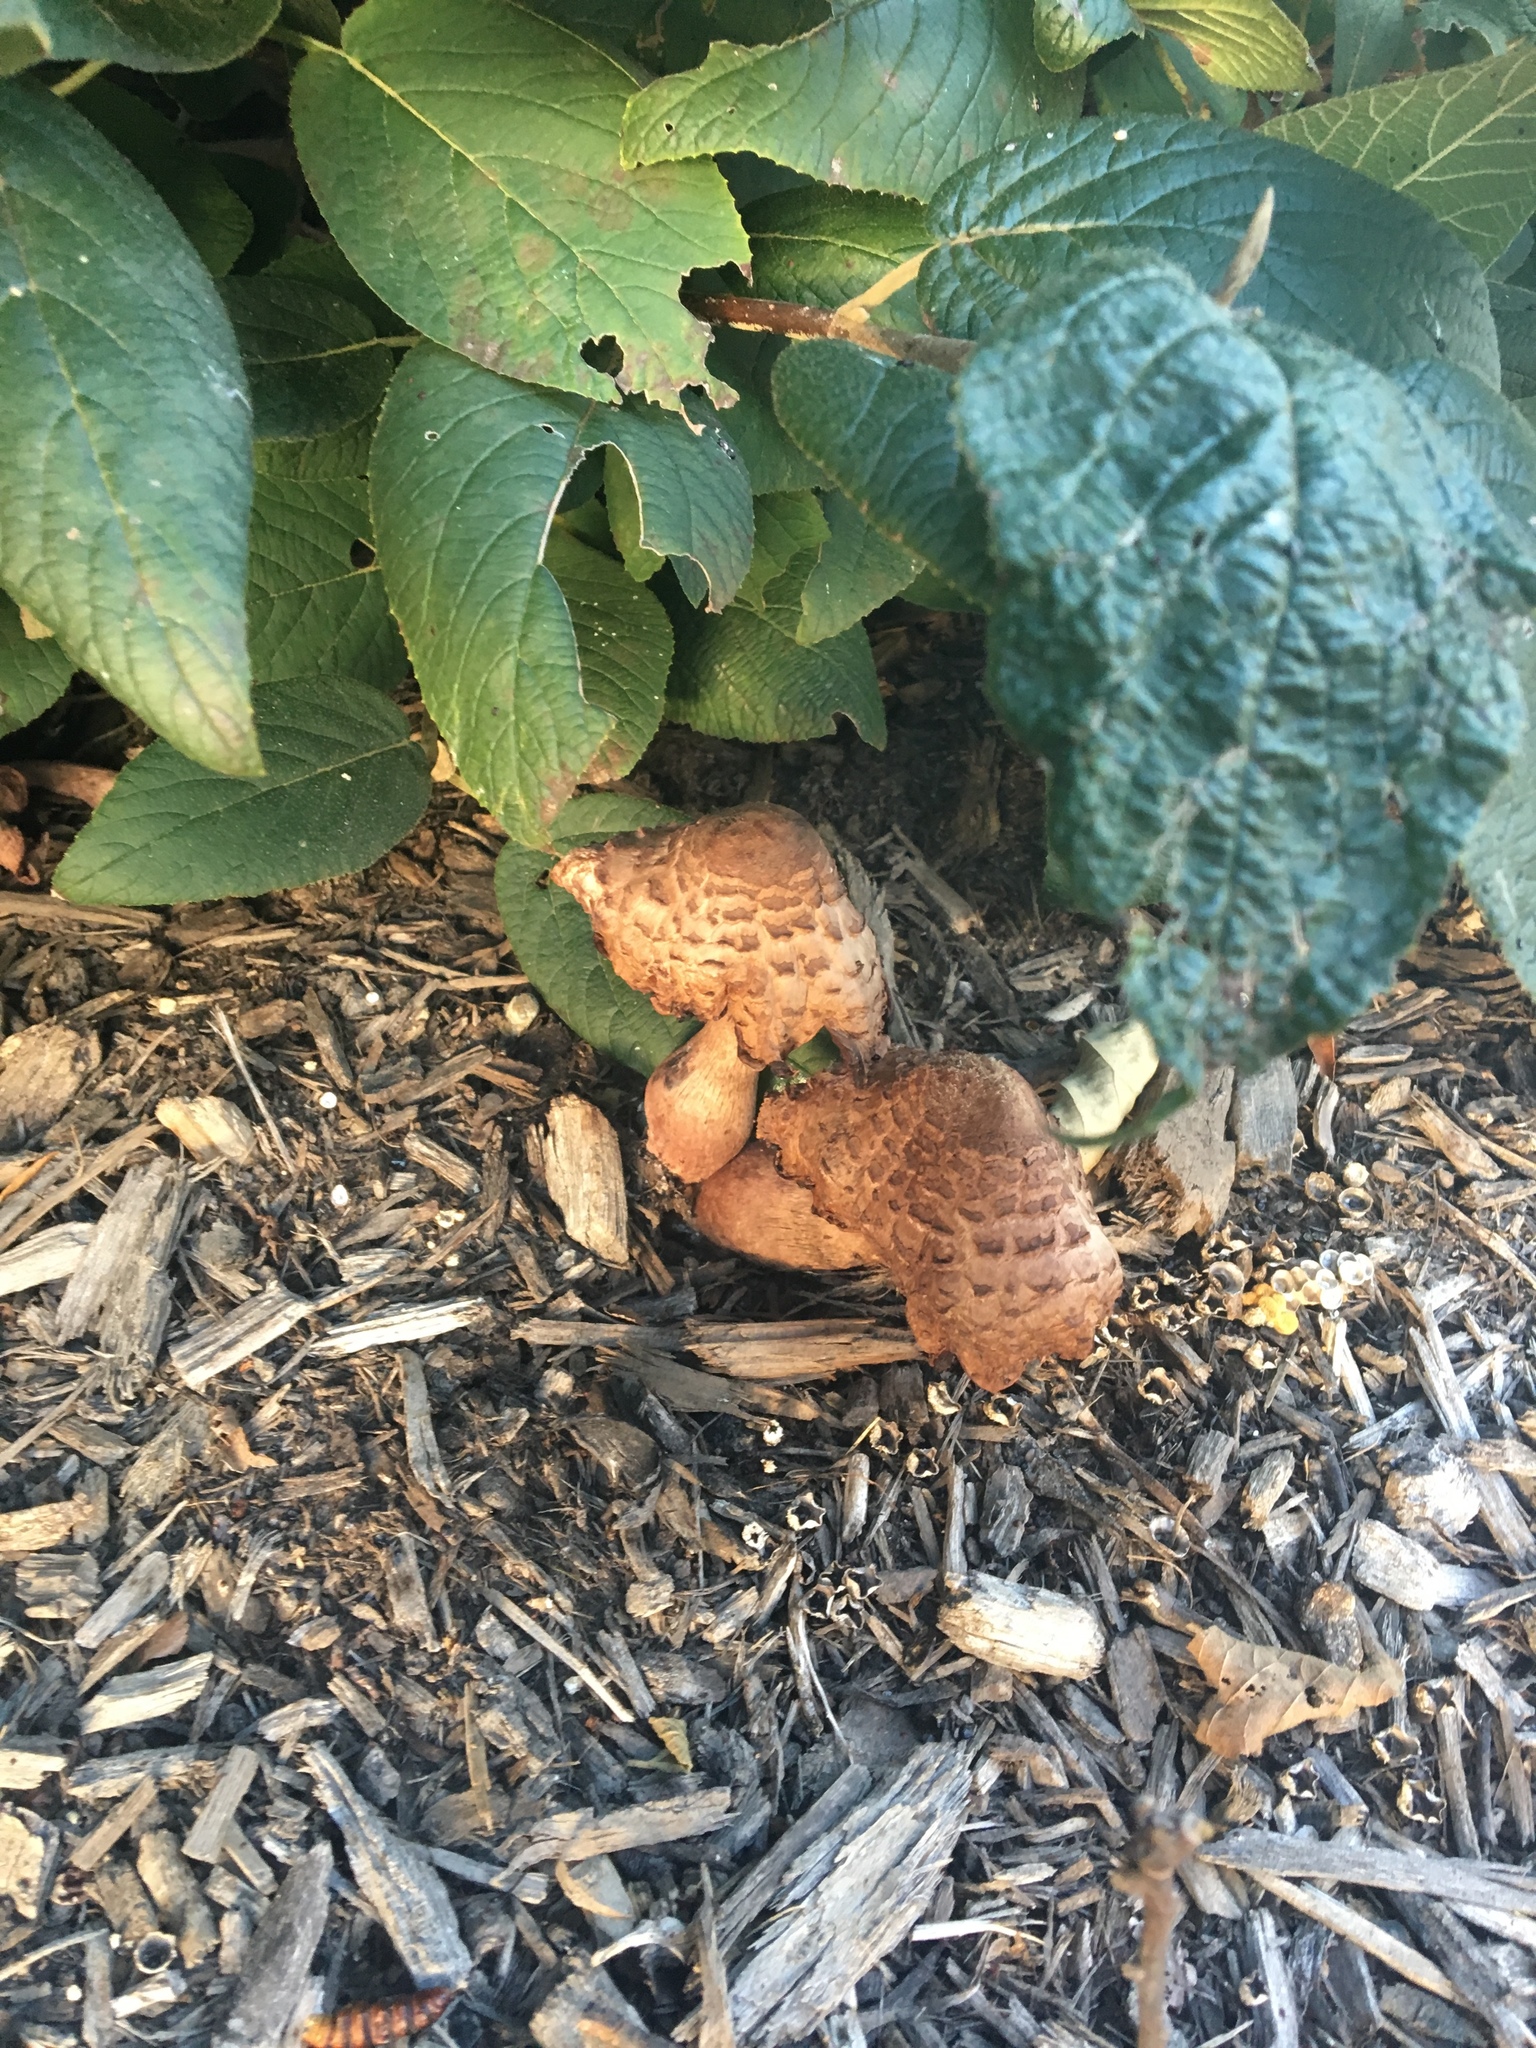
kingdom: Fungi
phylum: Basidiomycota
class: Agaricomycetes
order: Agaricales
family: Agaricaceae
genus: Leucoagaricus
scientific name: Leucoagaricus americanus
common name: Reddening lepiota
